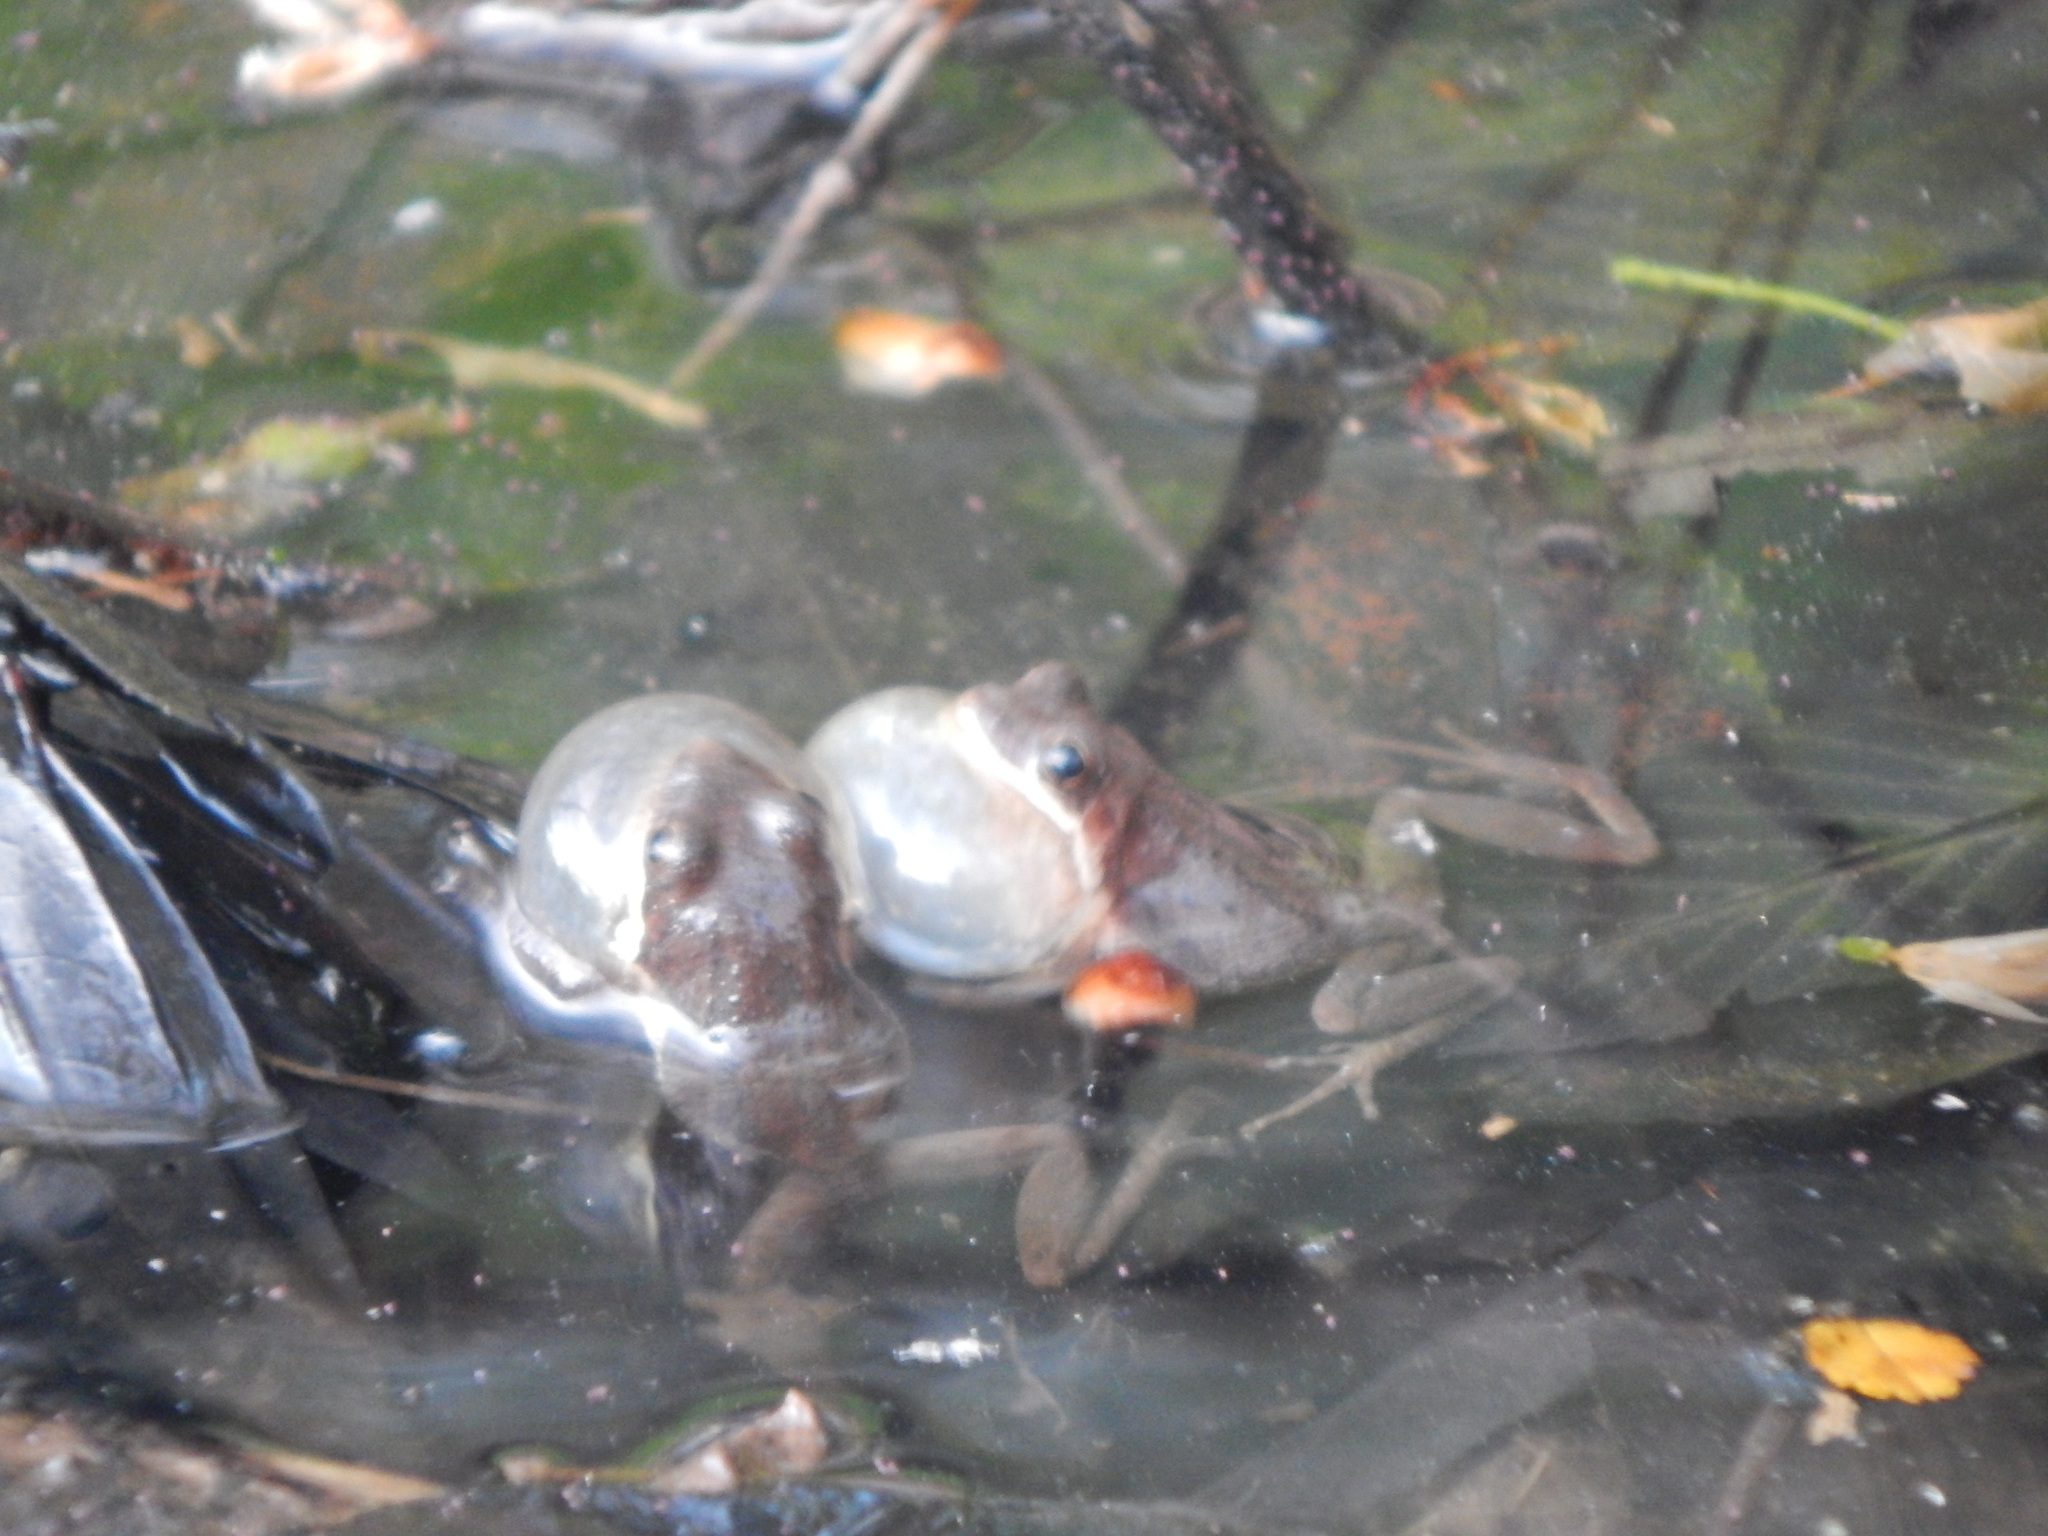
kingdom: Animalia
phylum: Chordata
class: Amphibia
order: Anura
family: Hylidae
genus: Pseudacris
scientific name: Pseudacris feriarum
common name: Upland chorus frog
